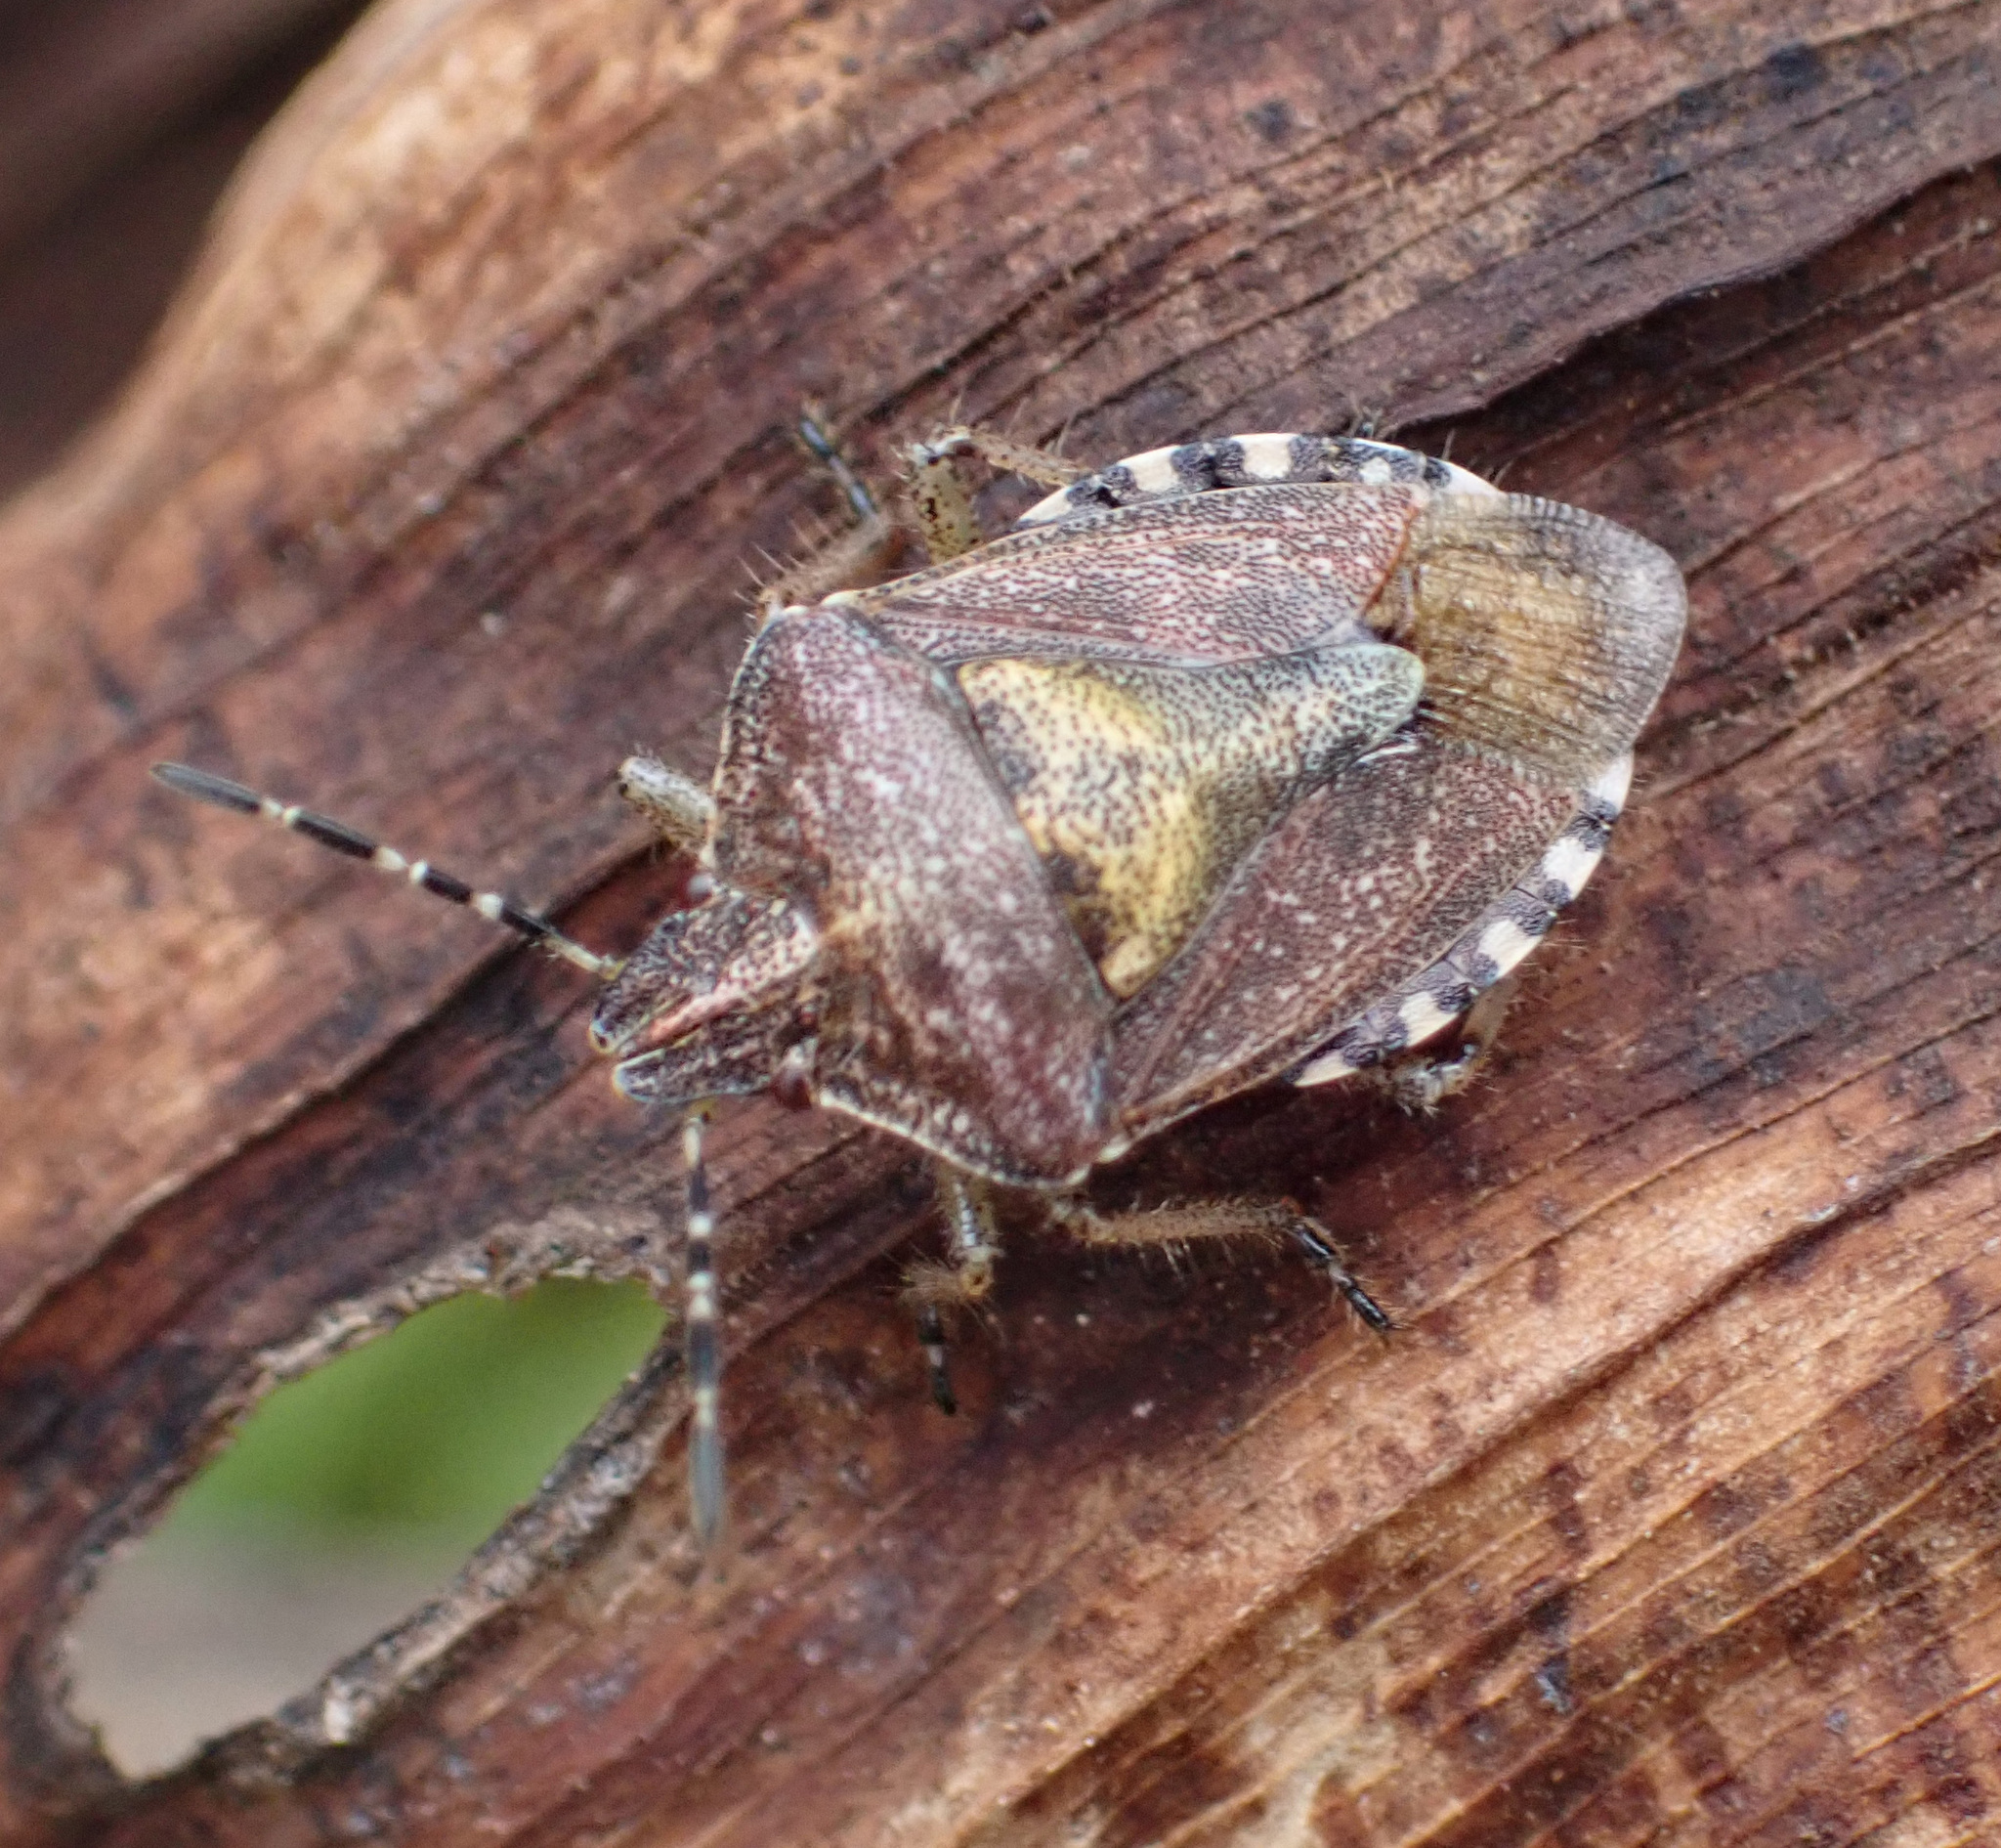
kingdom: Animalia
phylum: Arthropoda
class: Insecta
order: Hemiptera
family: Pentatomidae
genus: Dolycoris
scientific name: Dolycoris baccarum
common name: Sloe bug
